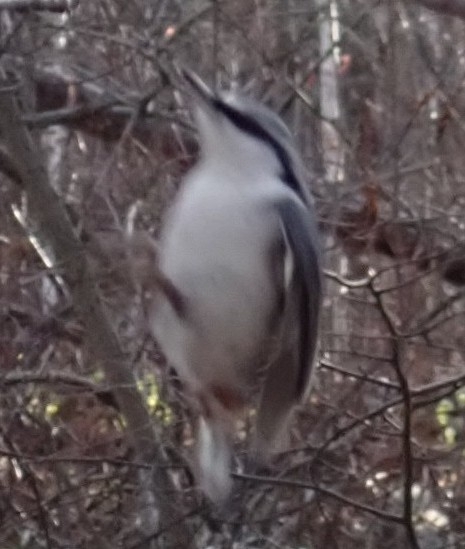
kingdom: Animalia
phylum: Chordata
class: Aves
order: Passeriformes
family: Sittidae
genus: Sitta
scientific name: Sitta europaea
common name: Eurasian nuthatch
